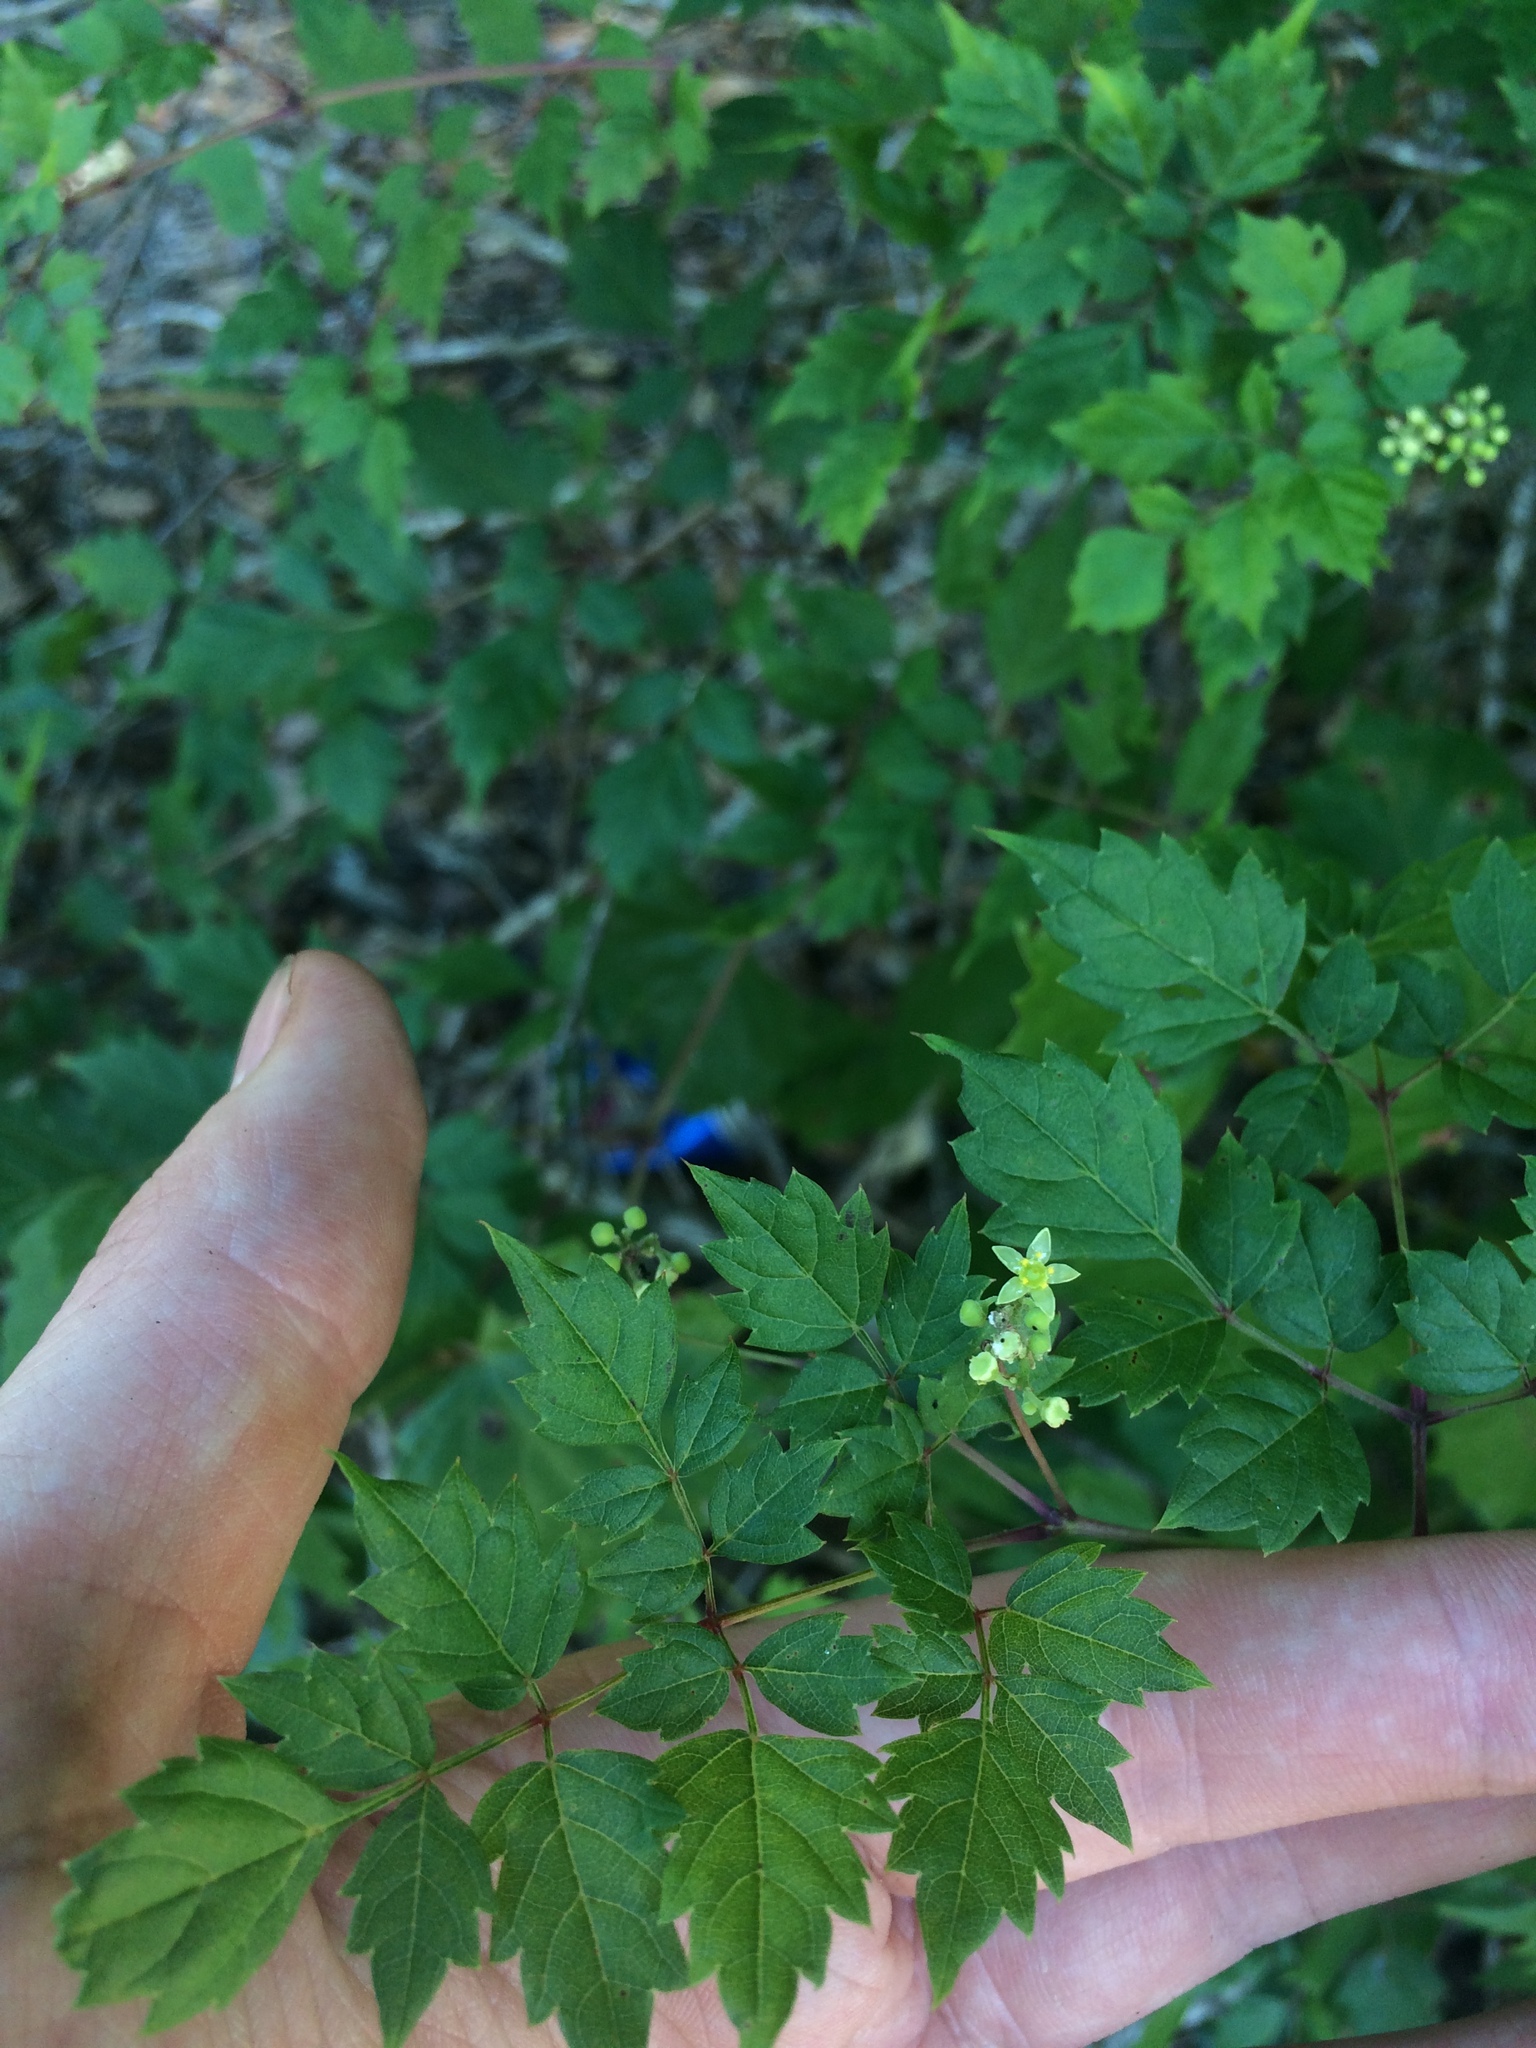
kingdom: Plantae
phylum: Tracheophyta
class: Magnoliopsida
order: Vitales
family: Vitaceae
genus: Nekemias
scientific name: Nekemias arborea
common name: Peppervine
